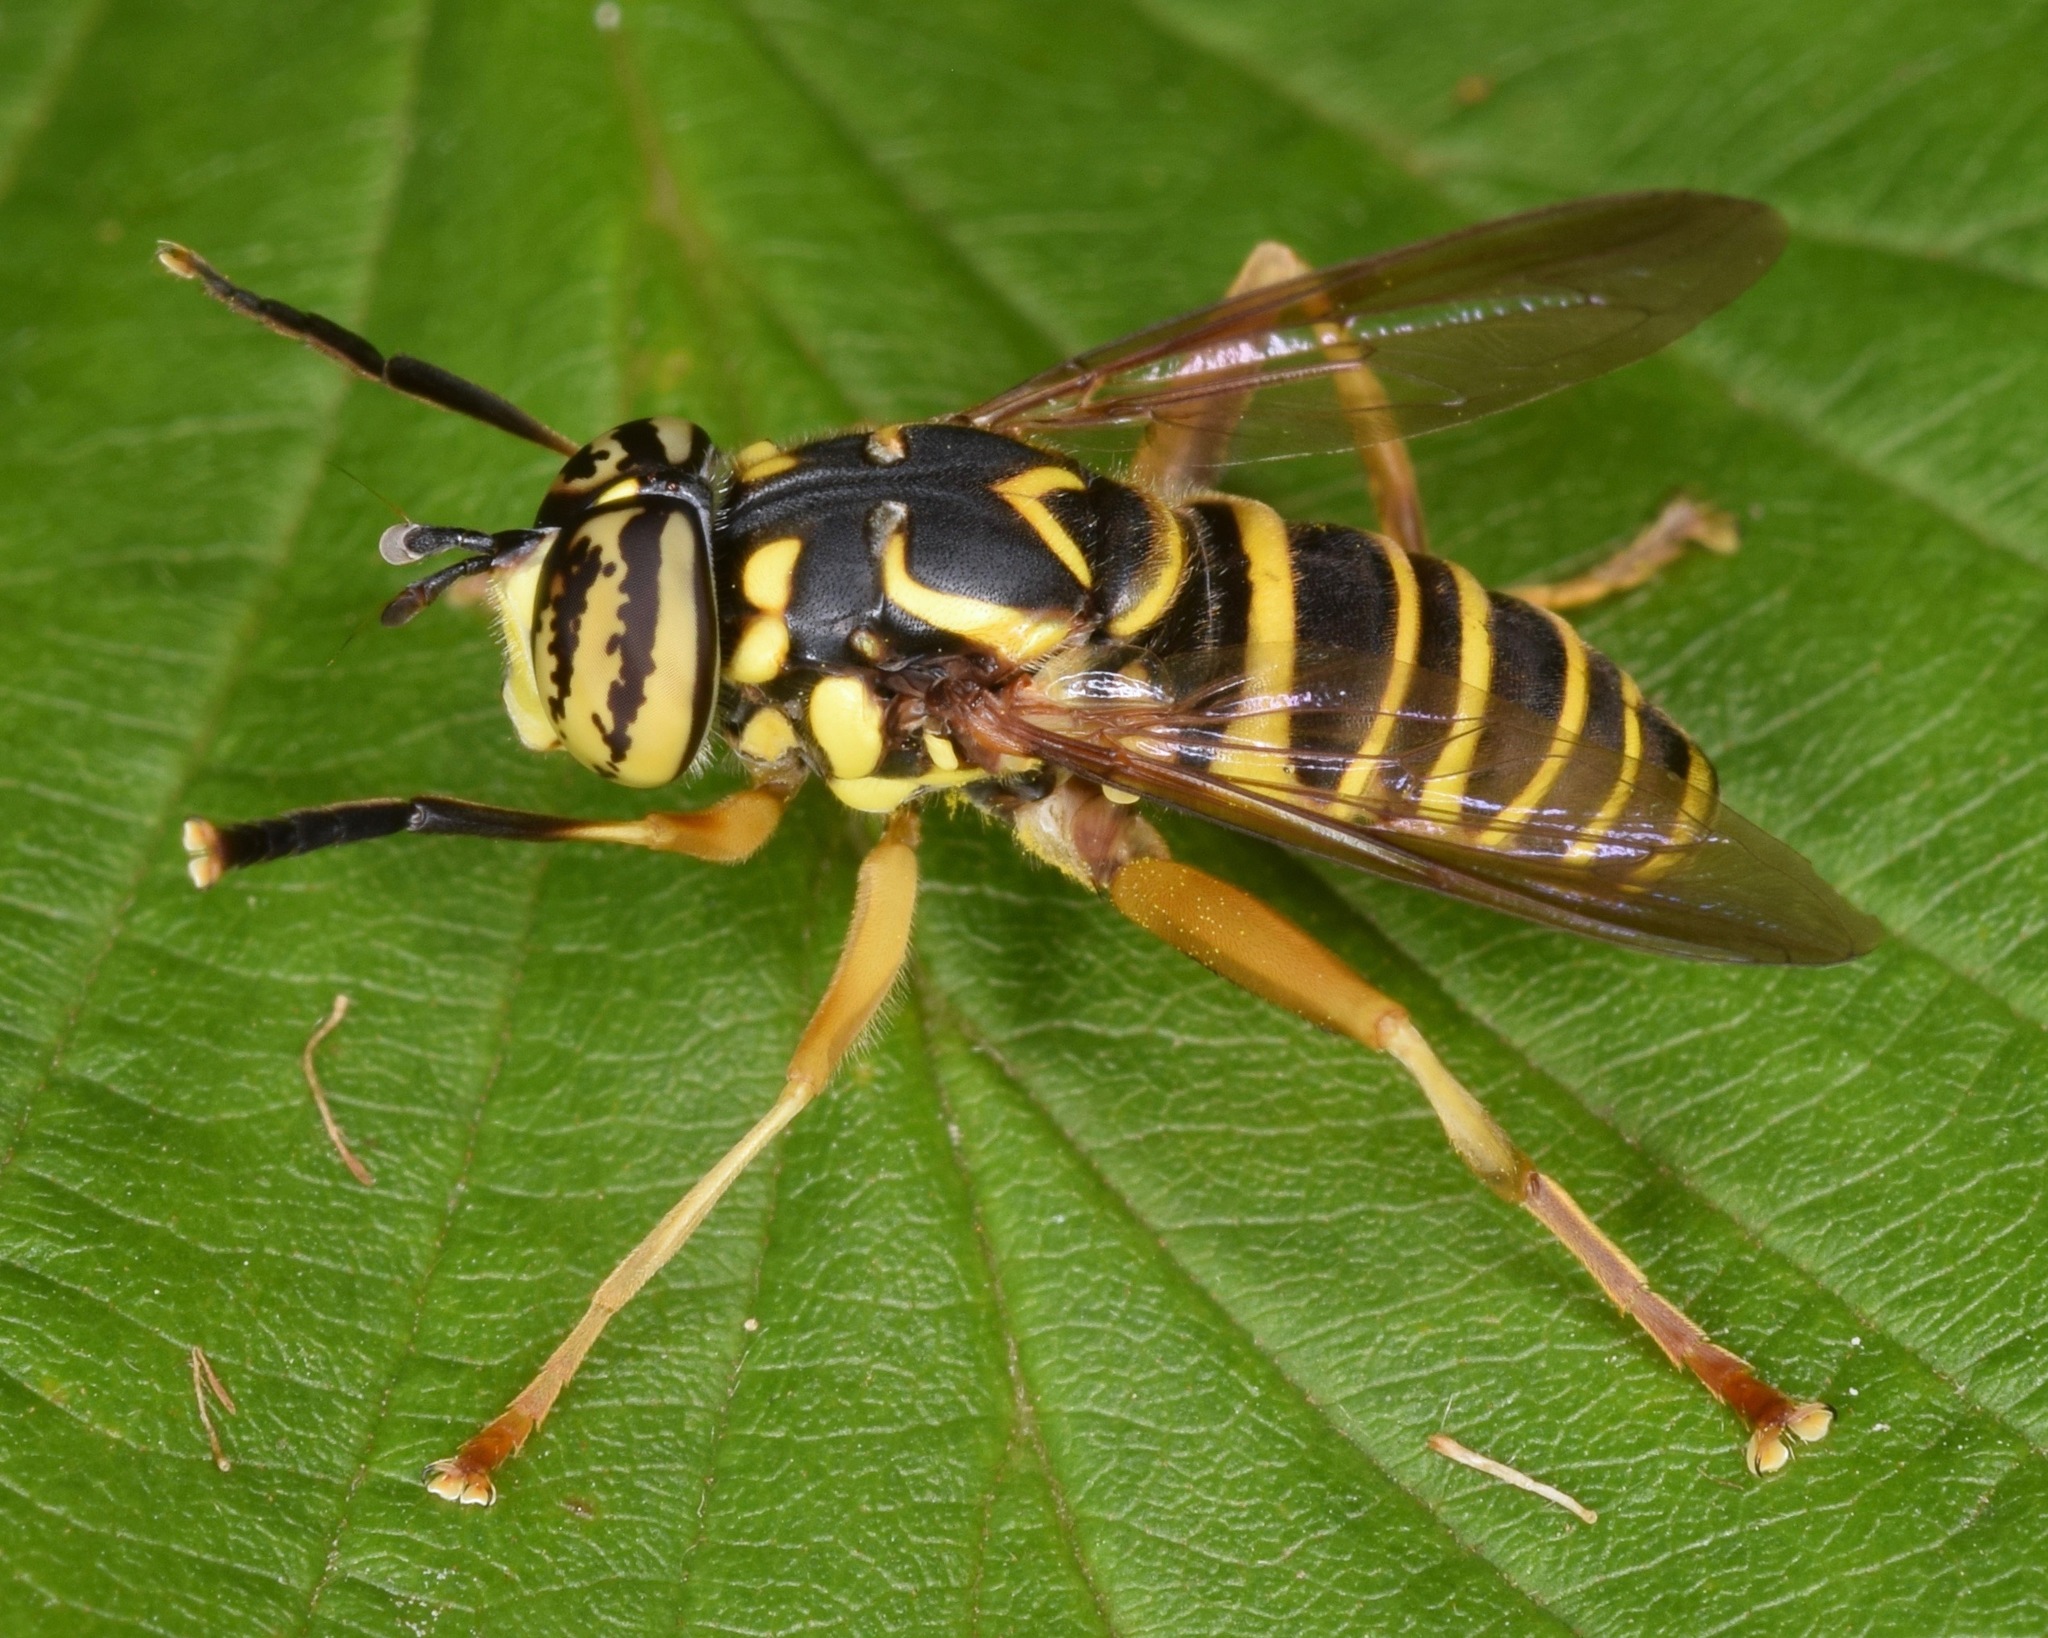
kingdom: Animalia
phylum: Arthropoda
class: Insecta
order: Diptera
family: Syrphidae
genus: Spilomyia
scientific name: Spilomyia longicornis
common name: Eastern hornet fly
